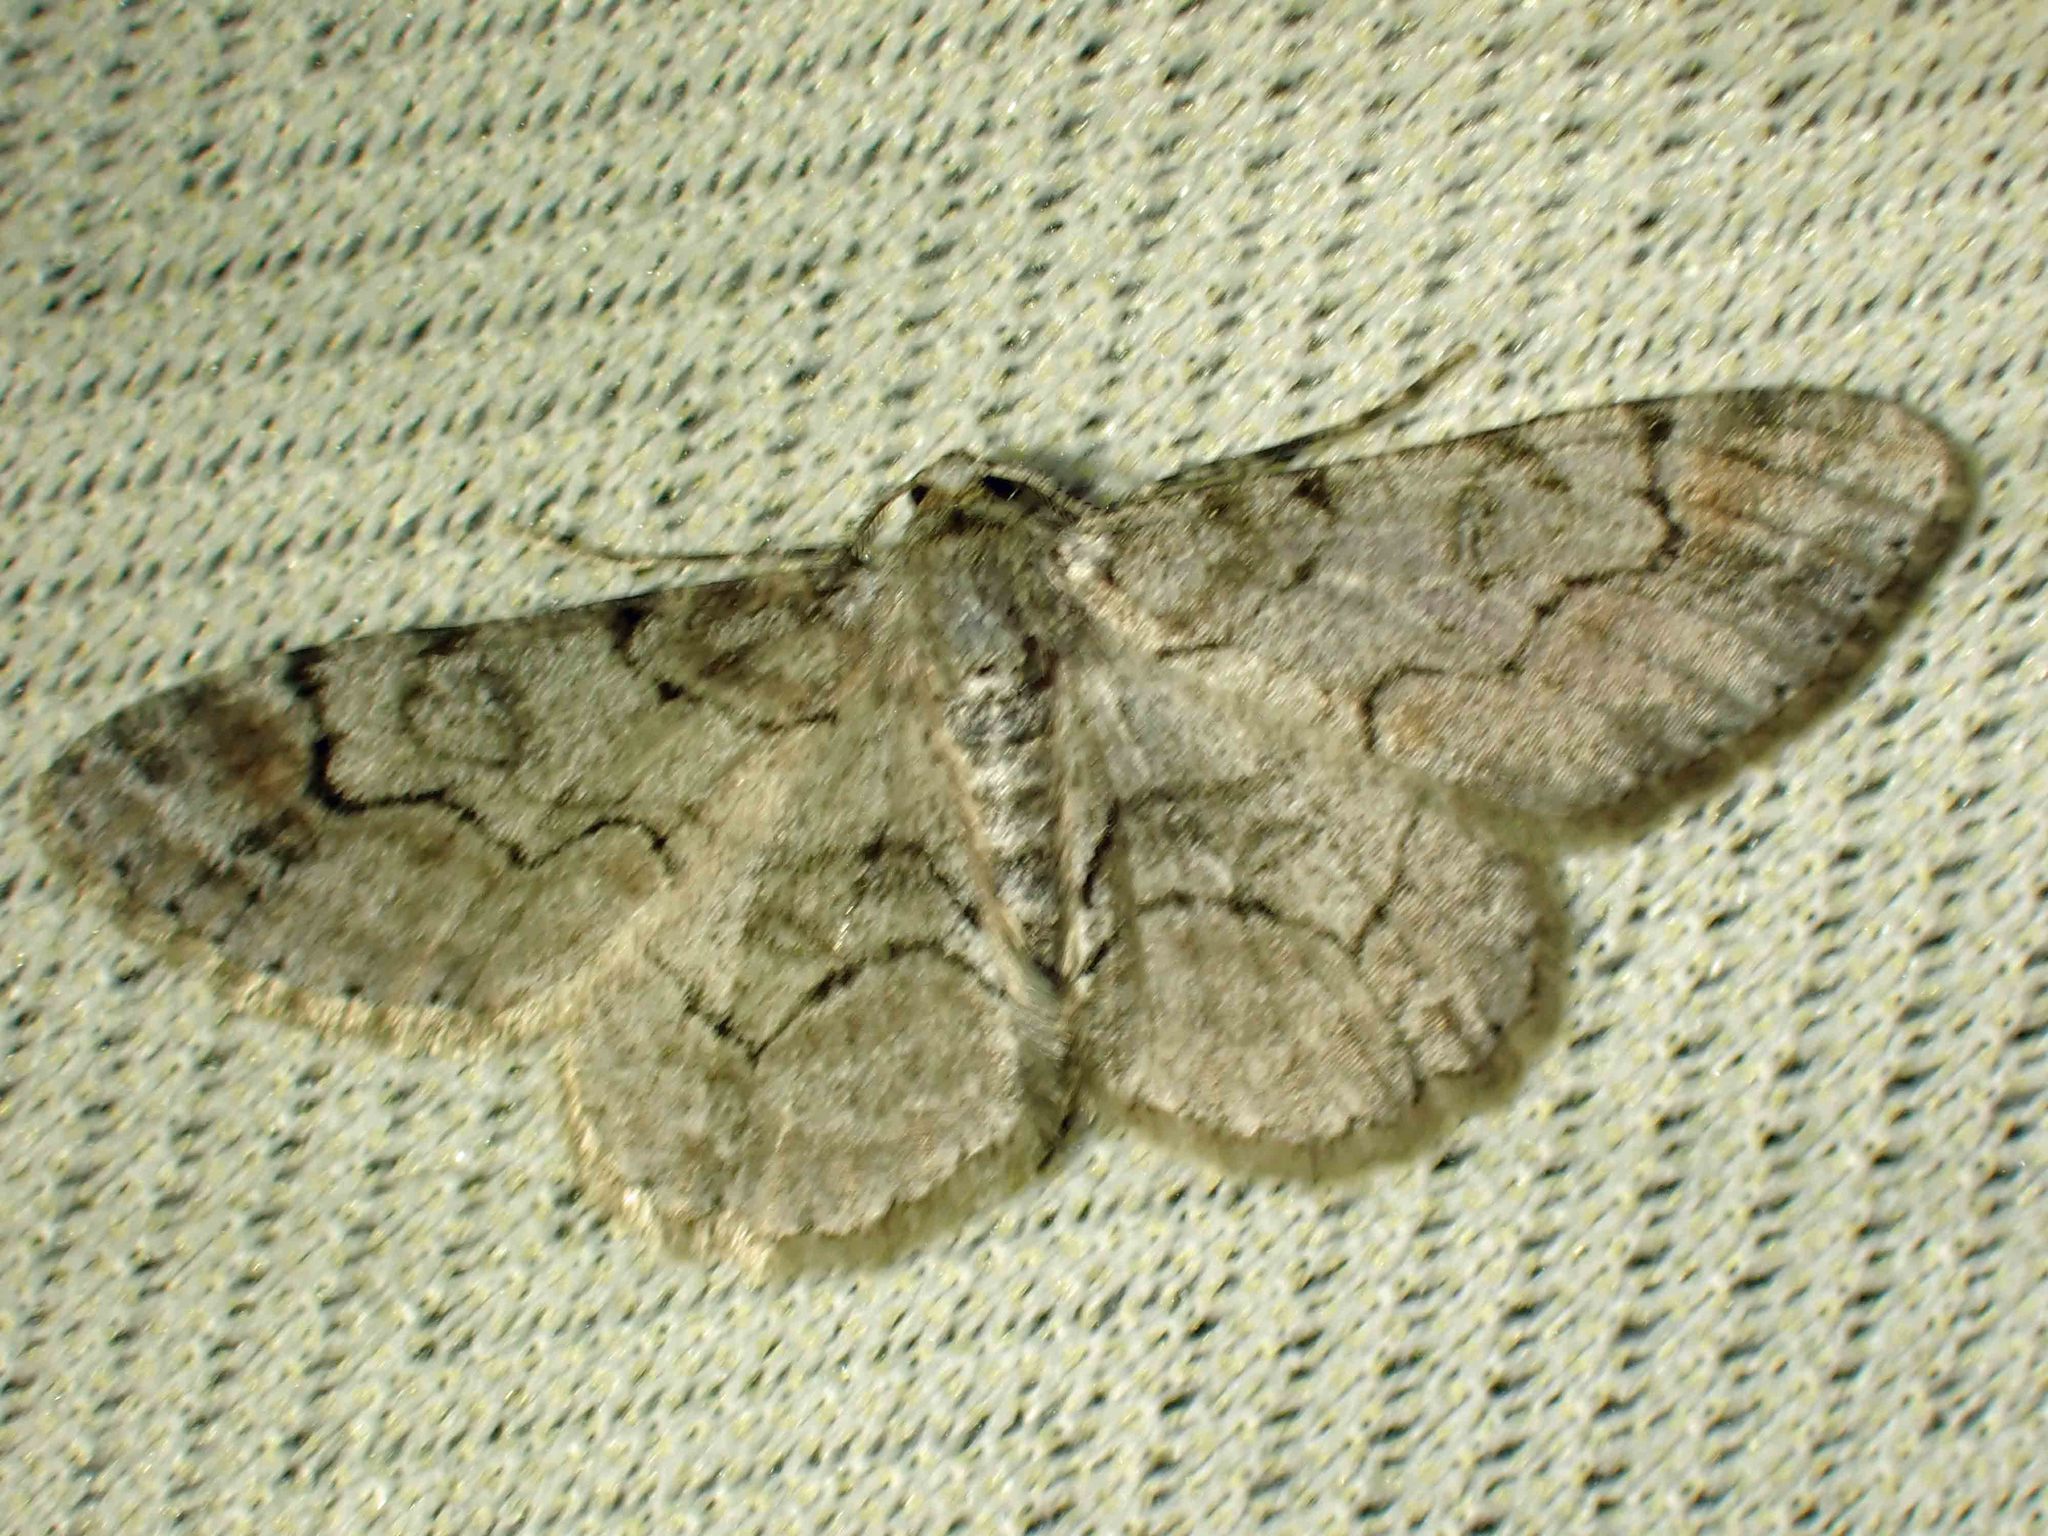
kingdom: Animalia
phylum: Arthropoda
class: Insecta
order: Lepidoptera
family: Geometridae
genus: Iridopsis
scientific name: Iridopsis larvaria
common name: Bent-line gray
